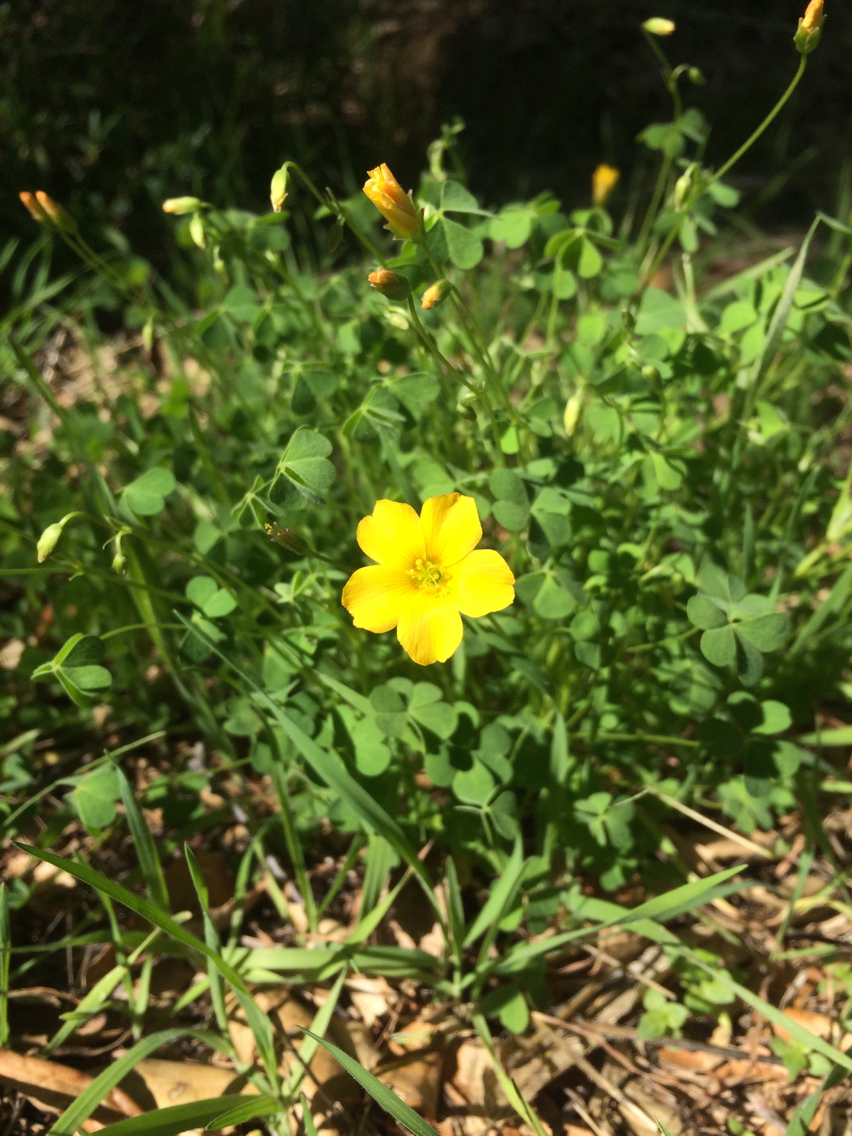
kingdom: Plantae
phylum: Tracheophyta
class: Magnoliopsida
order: Oxalidales
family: Oxalidaceae
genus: Oxalis
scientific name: Oxalis californica
